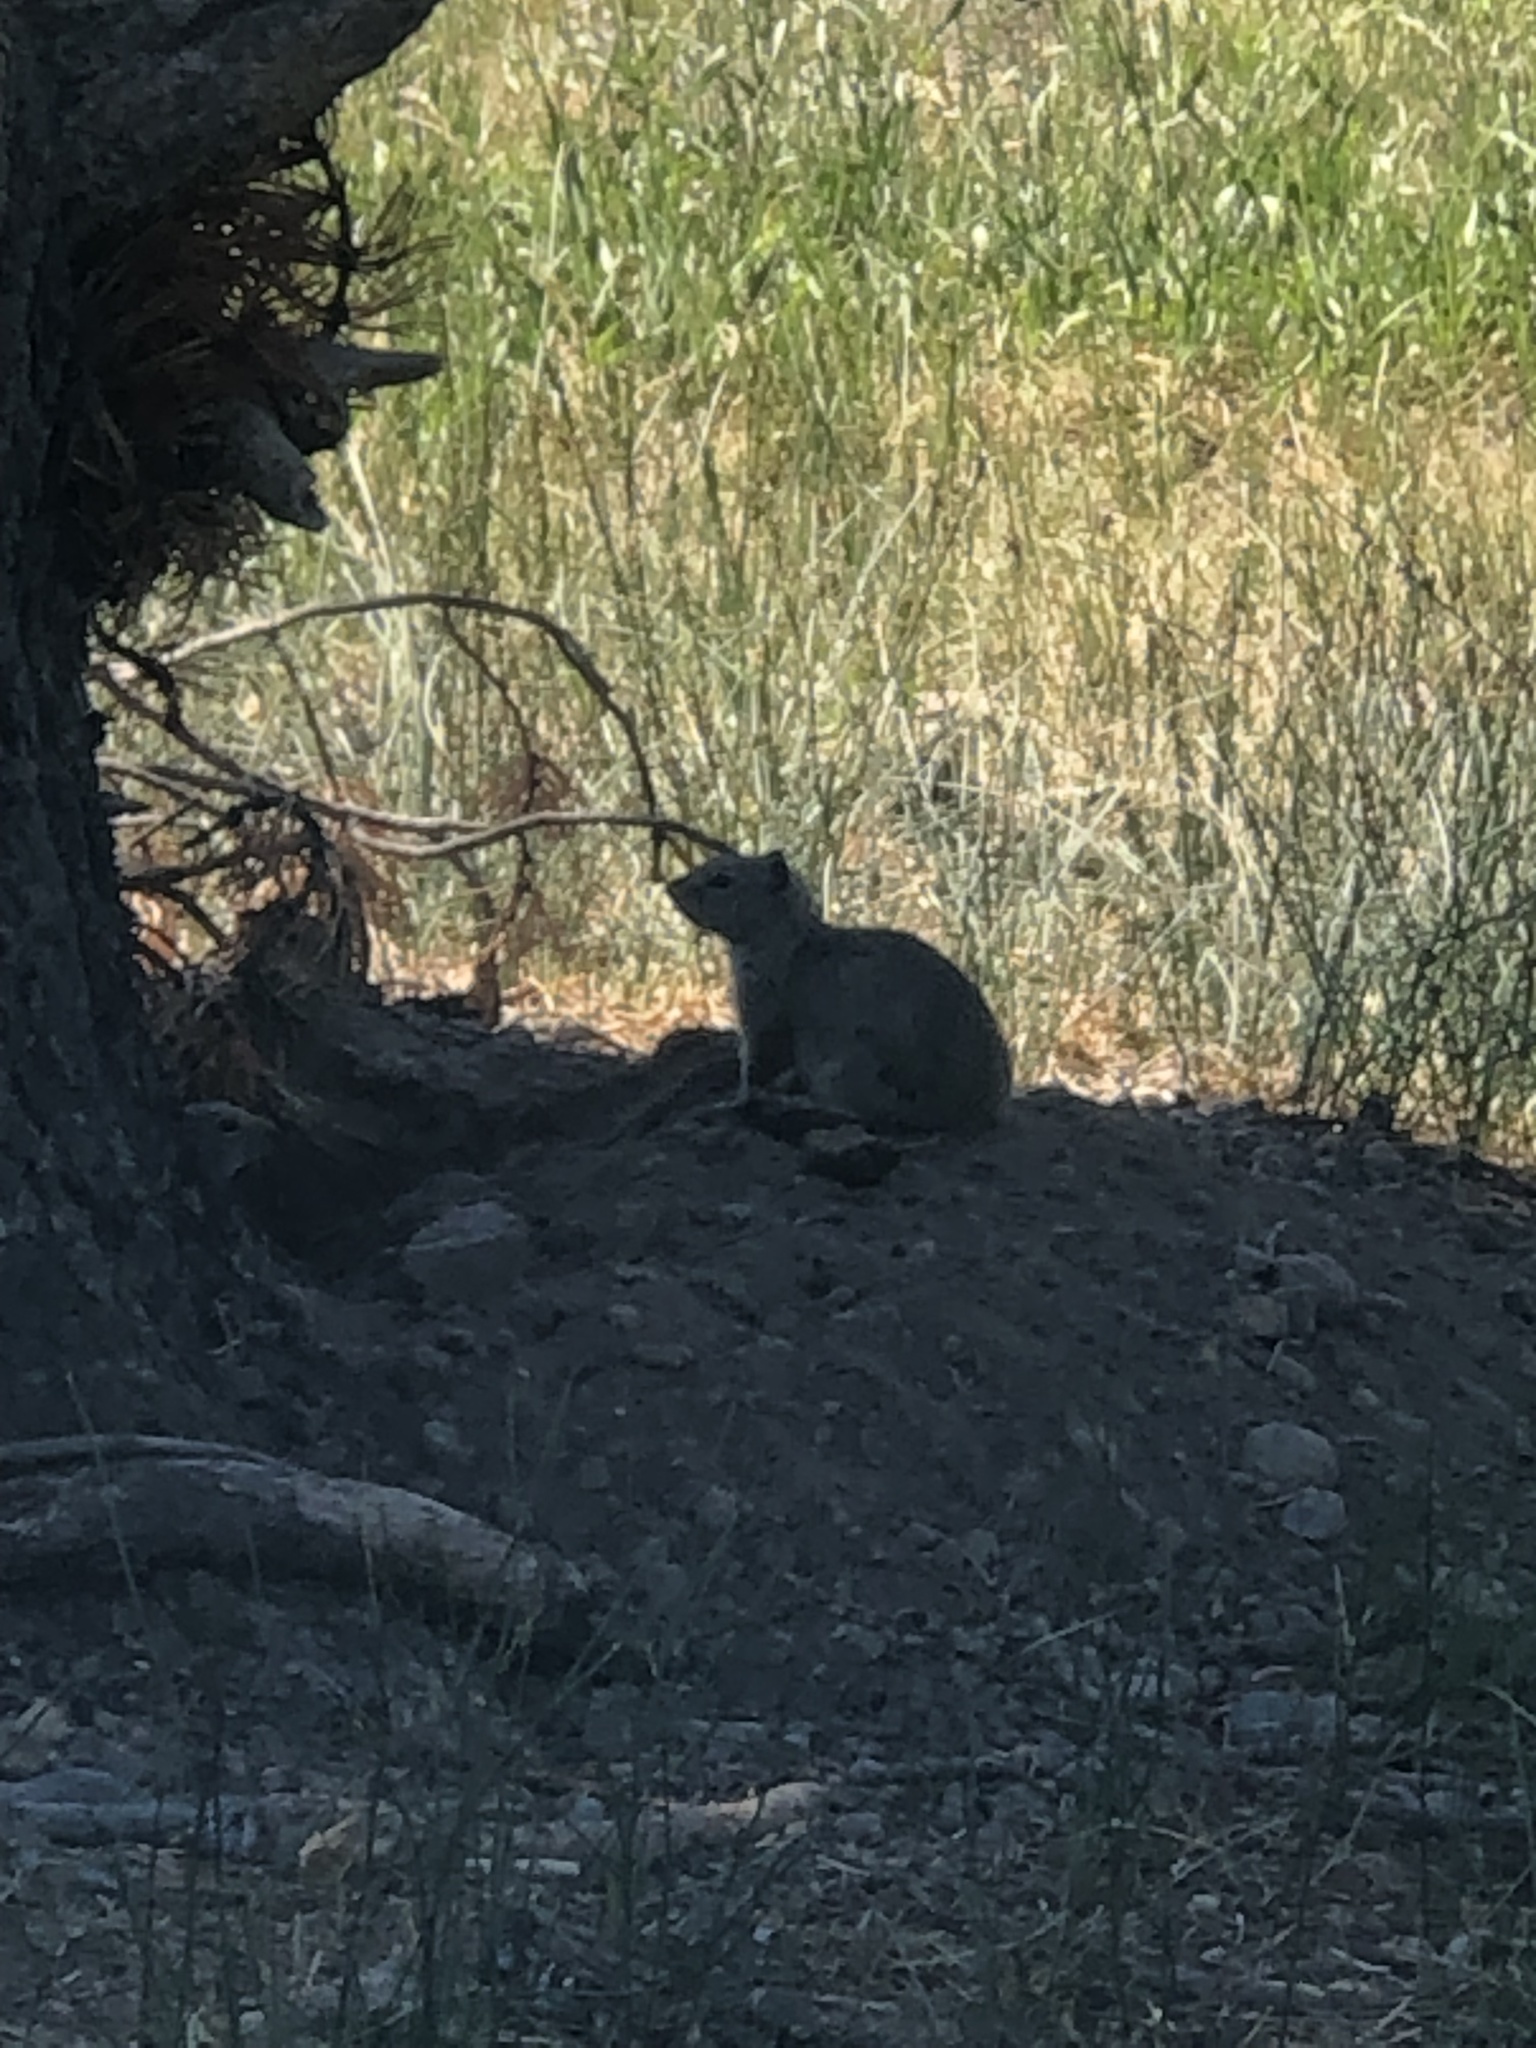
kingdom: Animalia
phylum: Chordata
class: Mammalia
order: Rodentia
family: Sciuridae
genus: Urocitellus
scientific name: Urocitellus armatus
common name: Uinta ground squirrel
